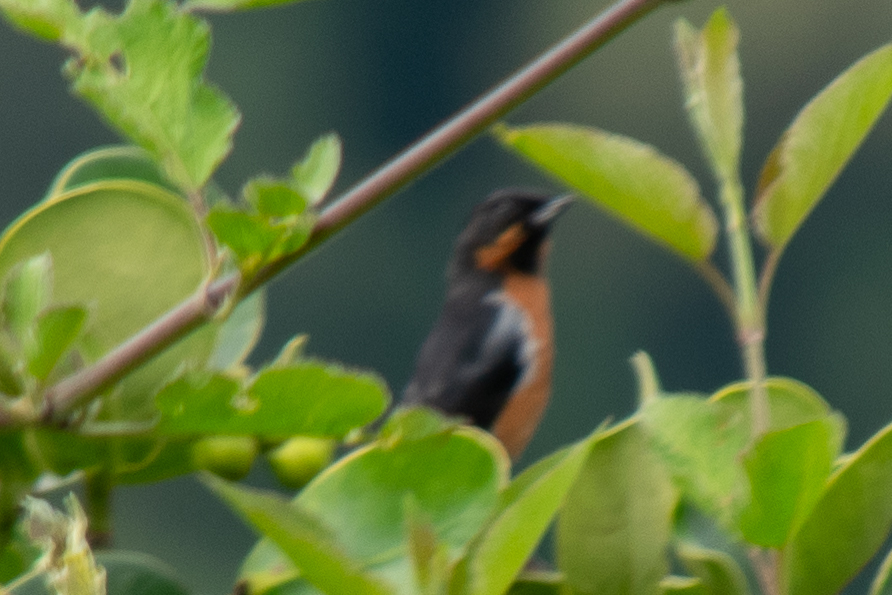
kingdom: Animalia
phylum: Chordata
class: Aves
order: Passeriformes
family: Thraupidae
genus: Diglossa
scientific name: Diglossa brunneiventris
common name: Black-throated flowerpiercer
